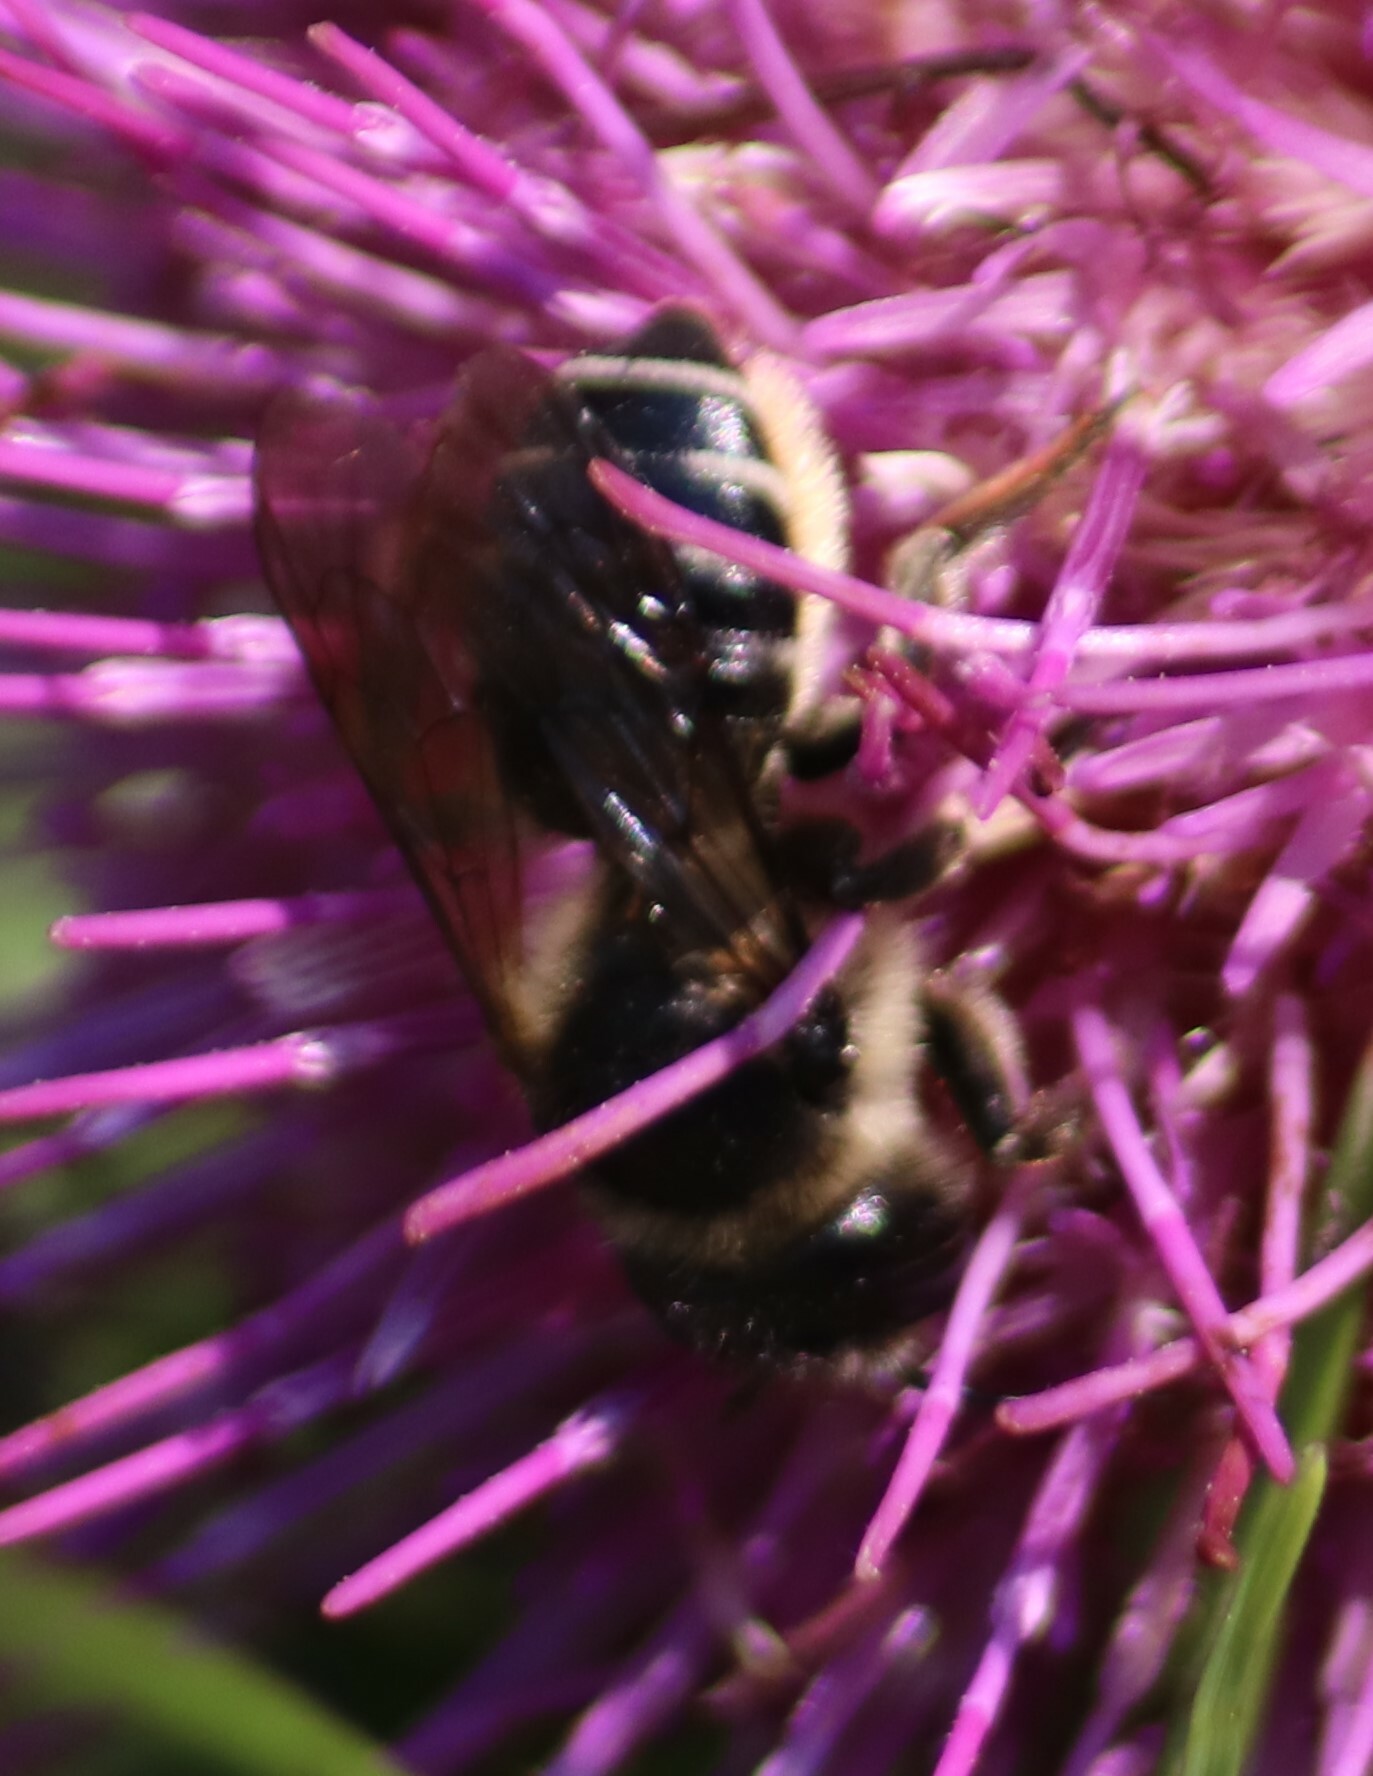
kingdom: Animalia
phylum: Arthropoda
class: Insecta
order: Hymenoptera
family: Megachilidae
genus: Megachile
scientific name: Megachile inermis
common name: Unarmed leafcutter bee
